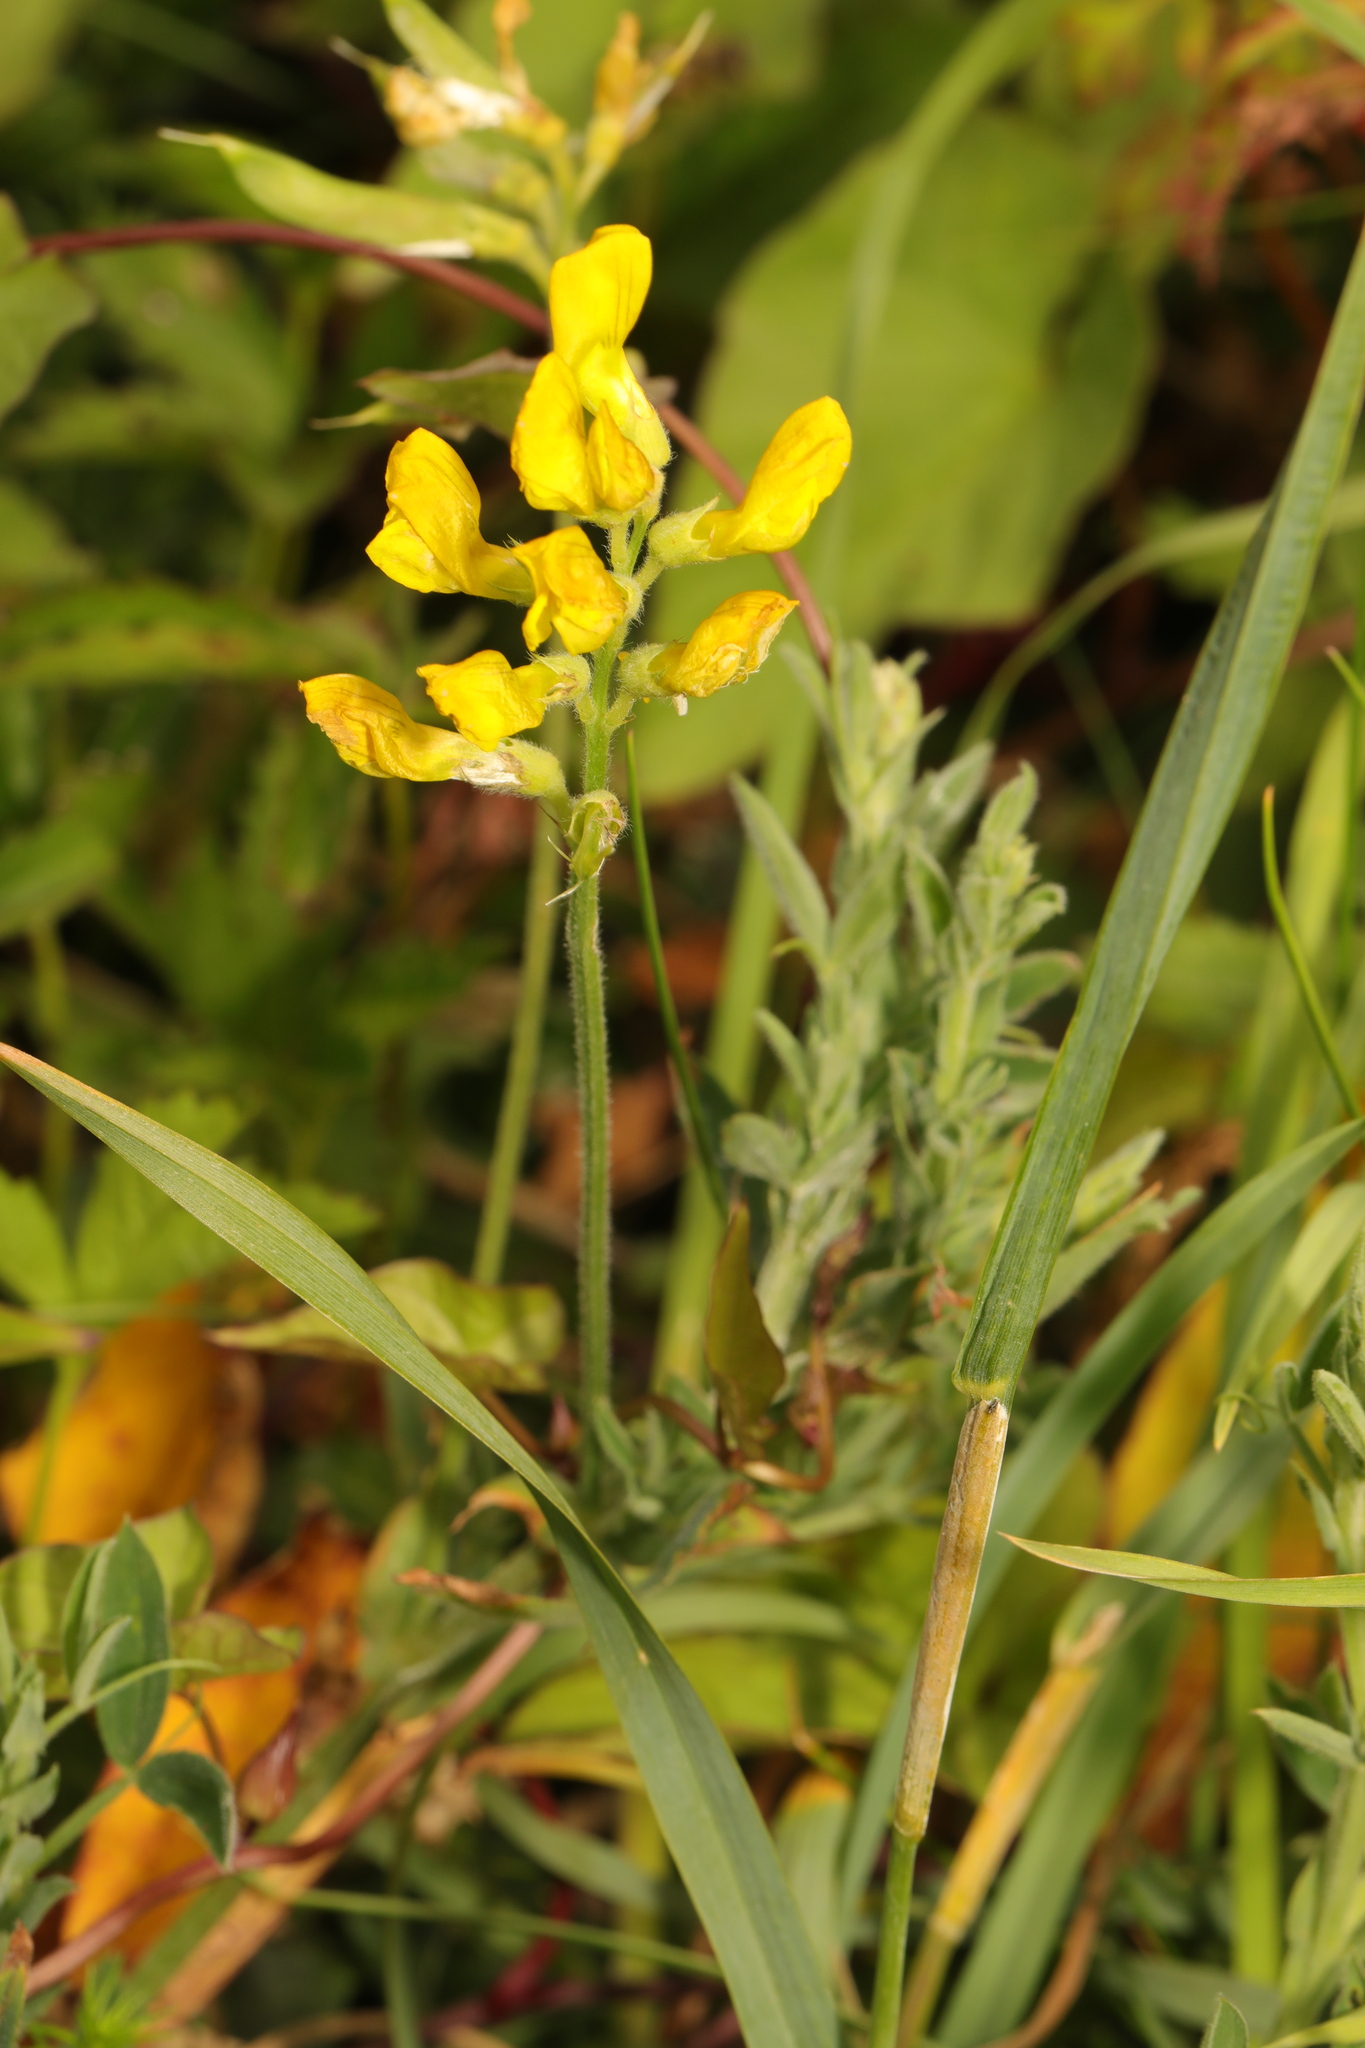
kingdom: Plantae
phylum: Tracheophyta
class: Magnoliopsida
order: Fabales
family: Fabaceae
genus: Lathyrus
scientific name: Lathyrus pratensis
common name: Meadow vetchling
